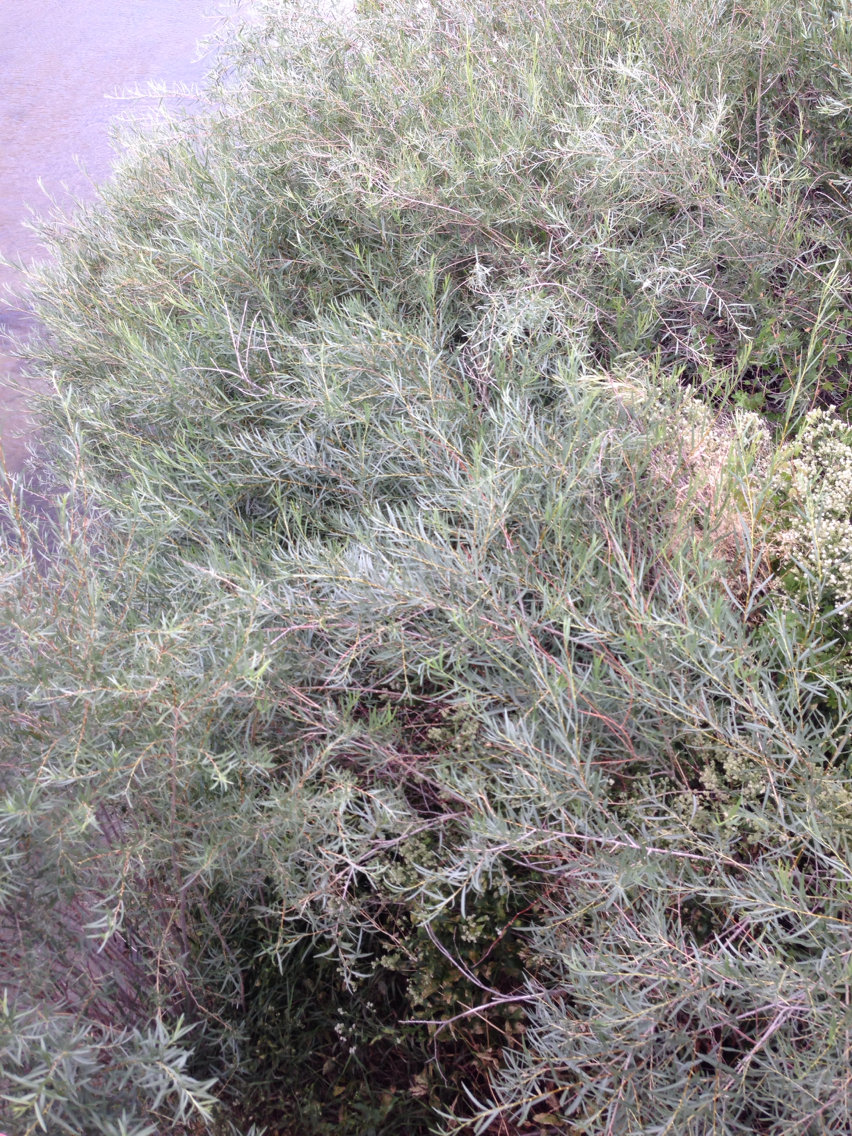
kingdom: Plantae
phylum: Tracheophyta
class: Magnoliopsida
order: Malpighiales
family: Salicaceae
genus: Salix
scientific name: Salix exigua
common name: Coyote willow
